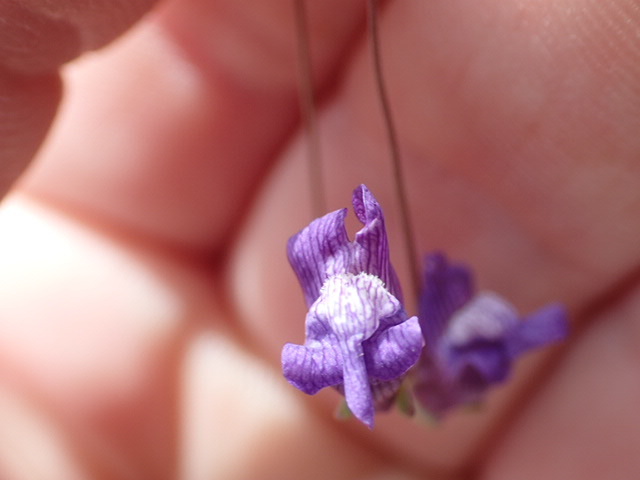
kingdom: Plantae
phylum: Tracheophyta
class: Magnoliopsida
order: Lamiales
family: Plantaginaceae
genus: Neogaerrhinum
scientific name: Neogaerrhinum strictum
